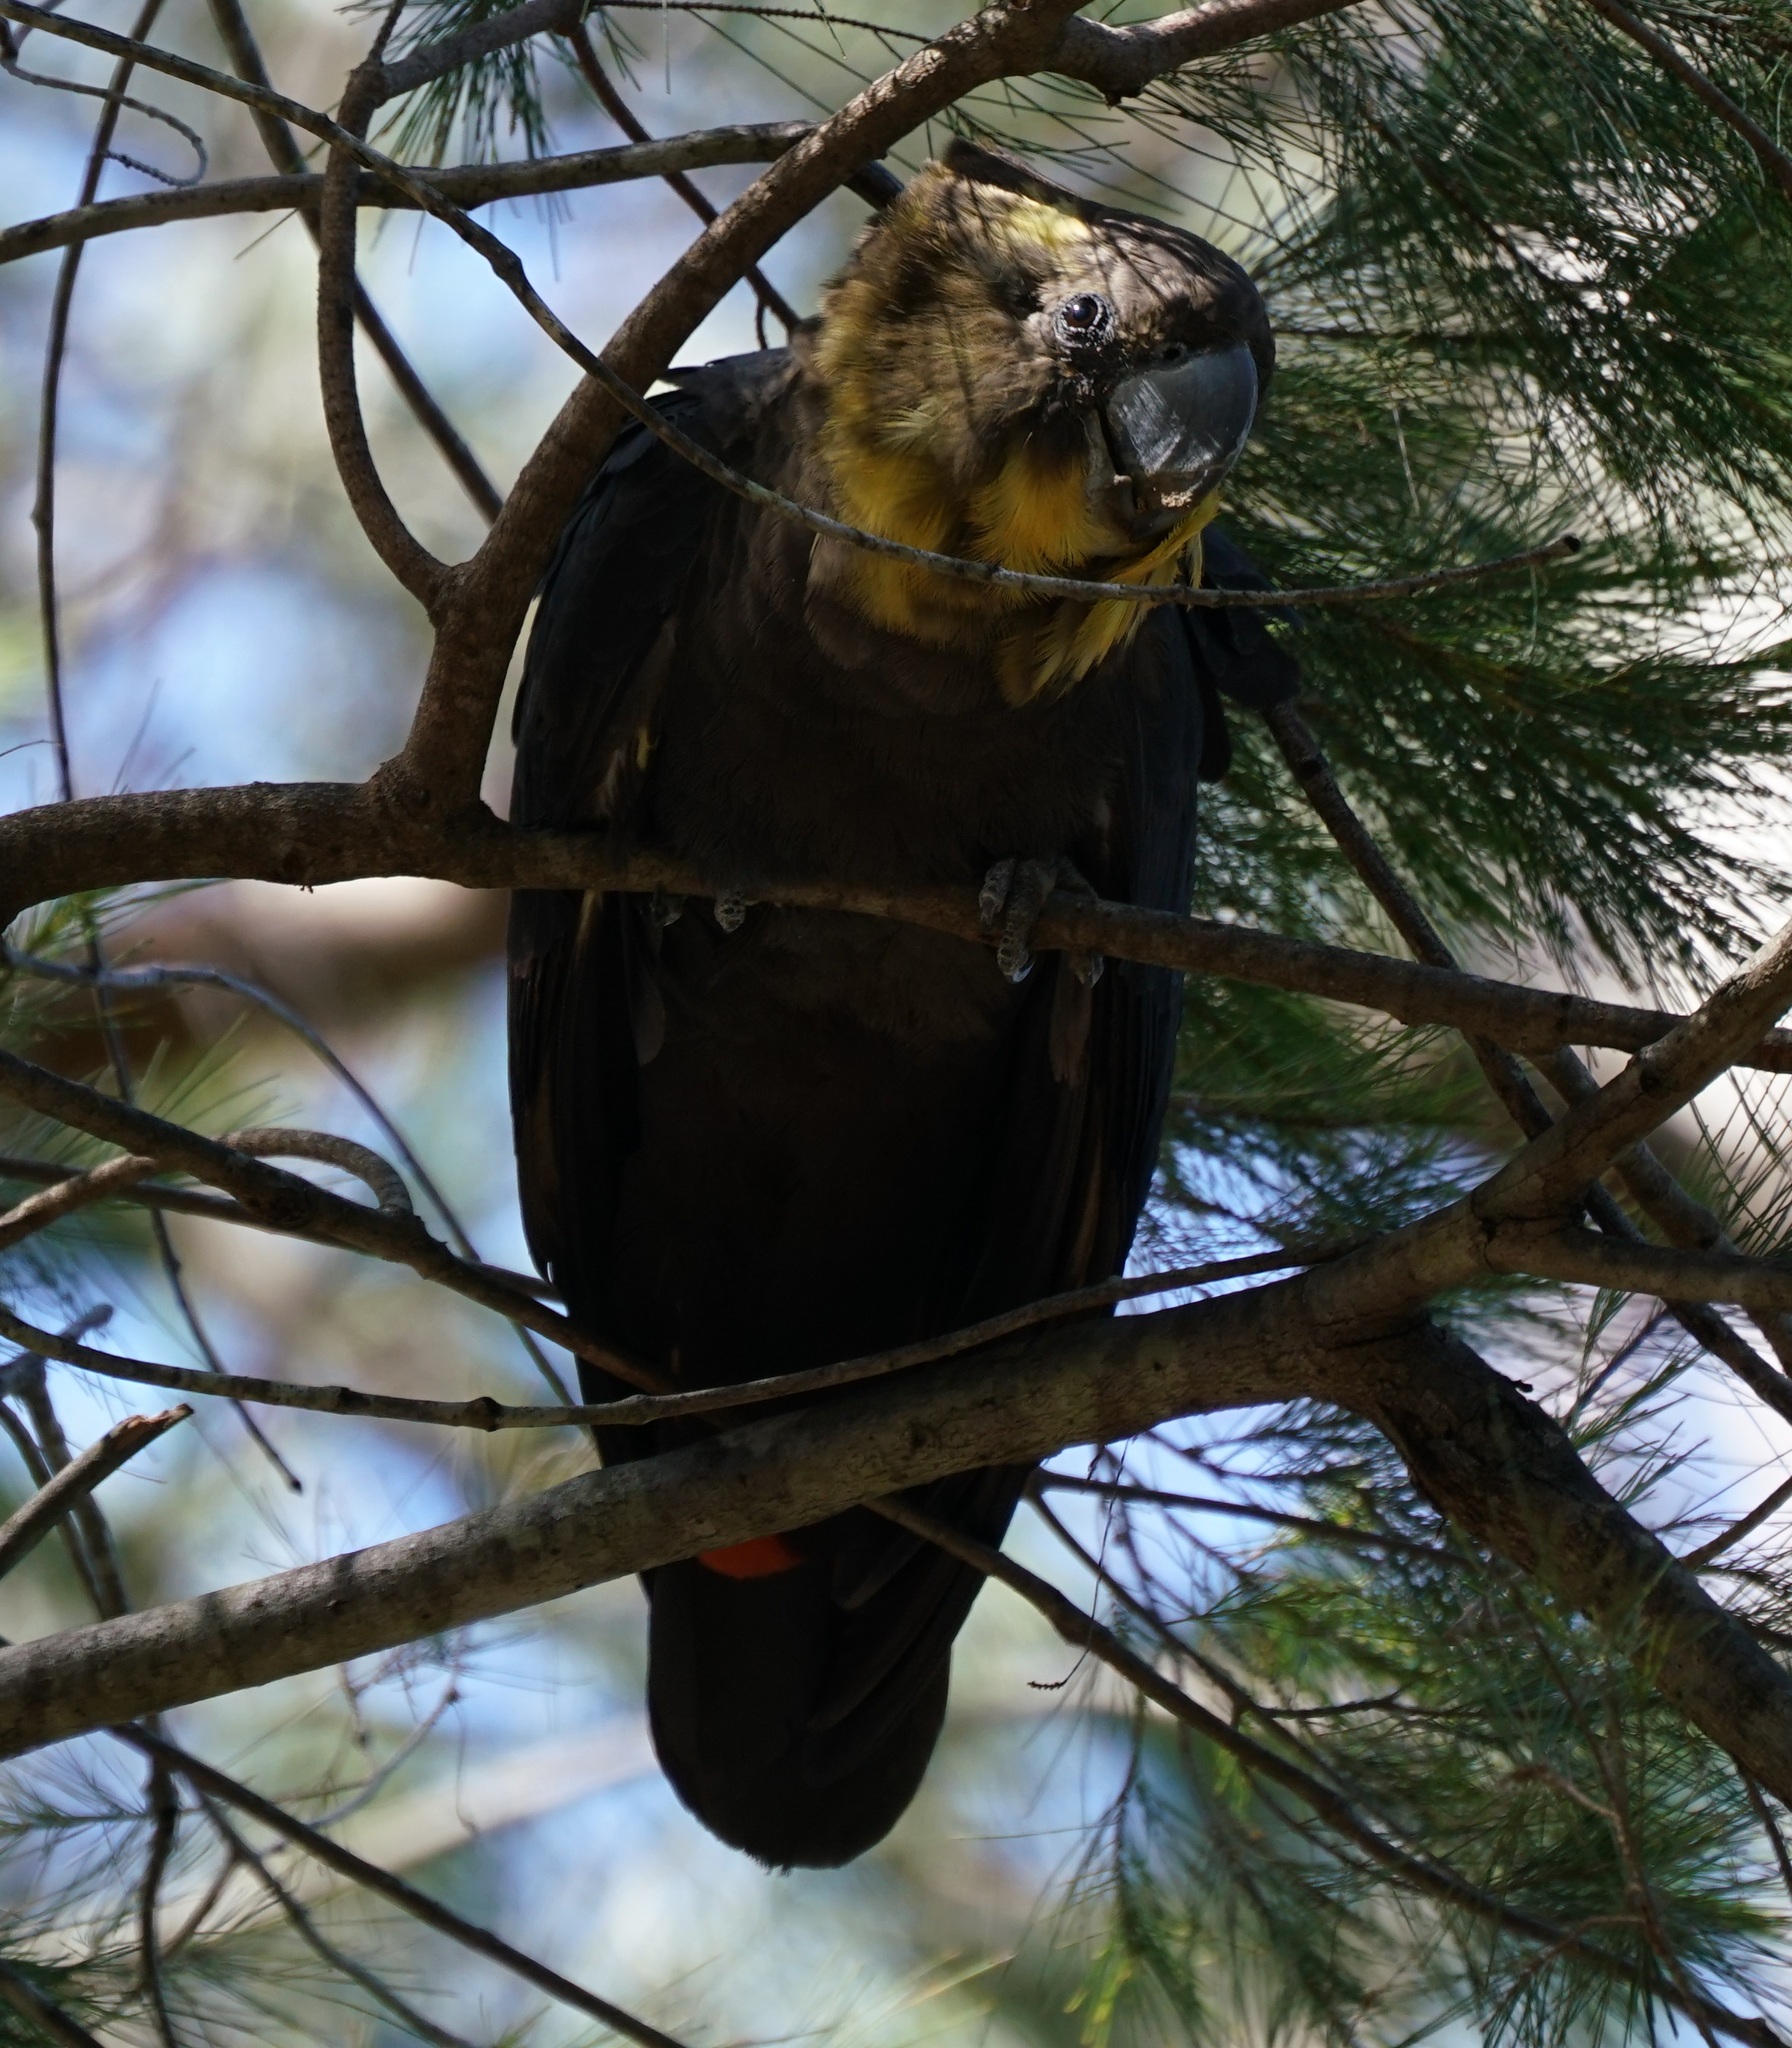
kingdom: Animalia
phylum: Chordata
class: Aves
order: Psittaciformes
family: Psittacidae
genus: Calyptorhynchus
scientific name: Calyptorhynchus lathami
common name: Glossy black cockatoo
